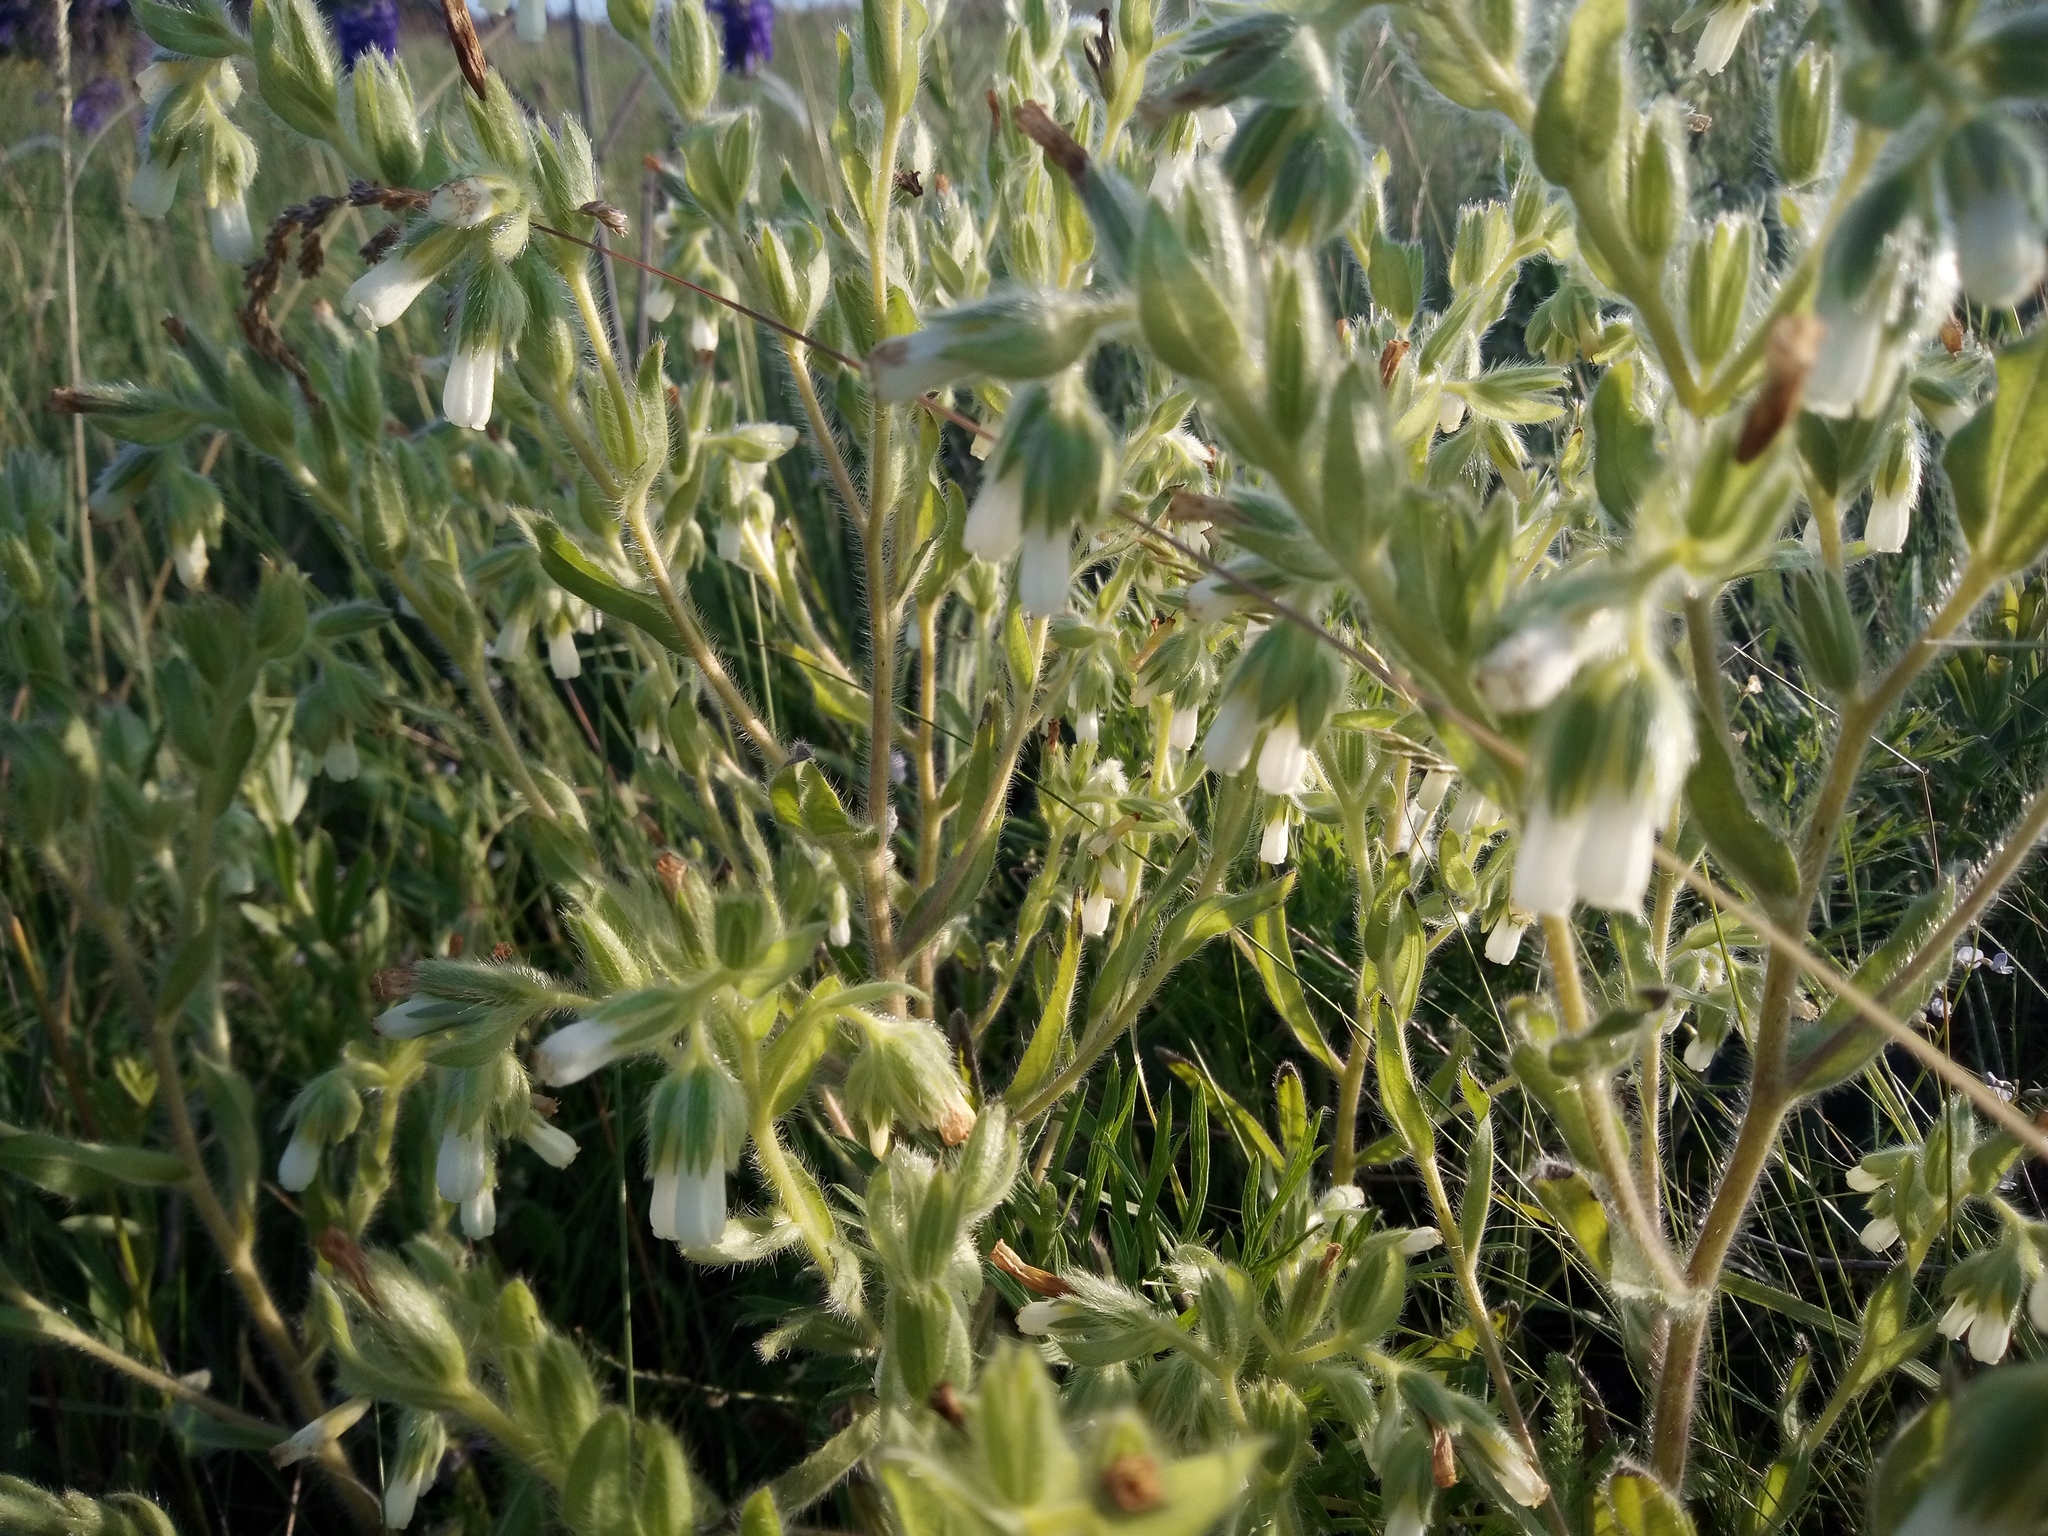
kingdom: Plantae
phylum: Tracheophyta
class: Magnoliopsida
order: Boraginales
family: Boraginaceae
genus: Onosma
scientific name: Onosma tinctoria
